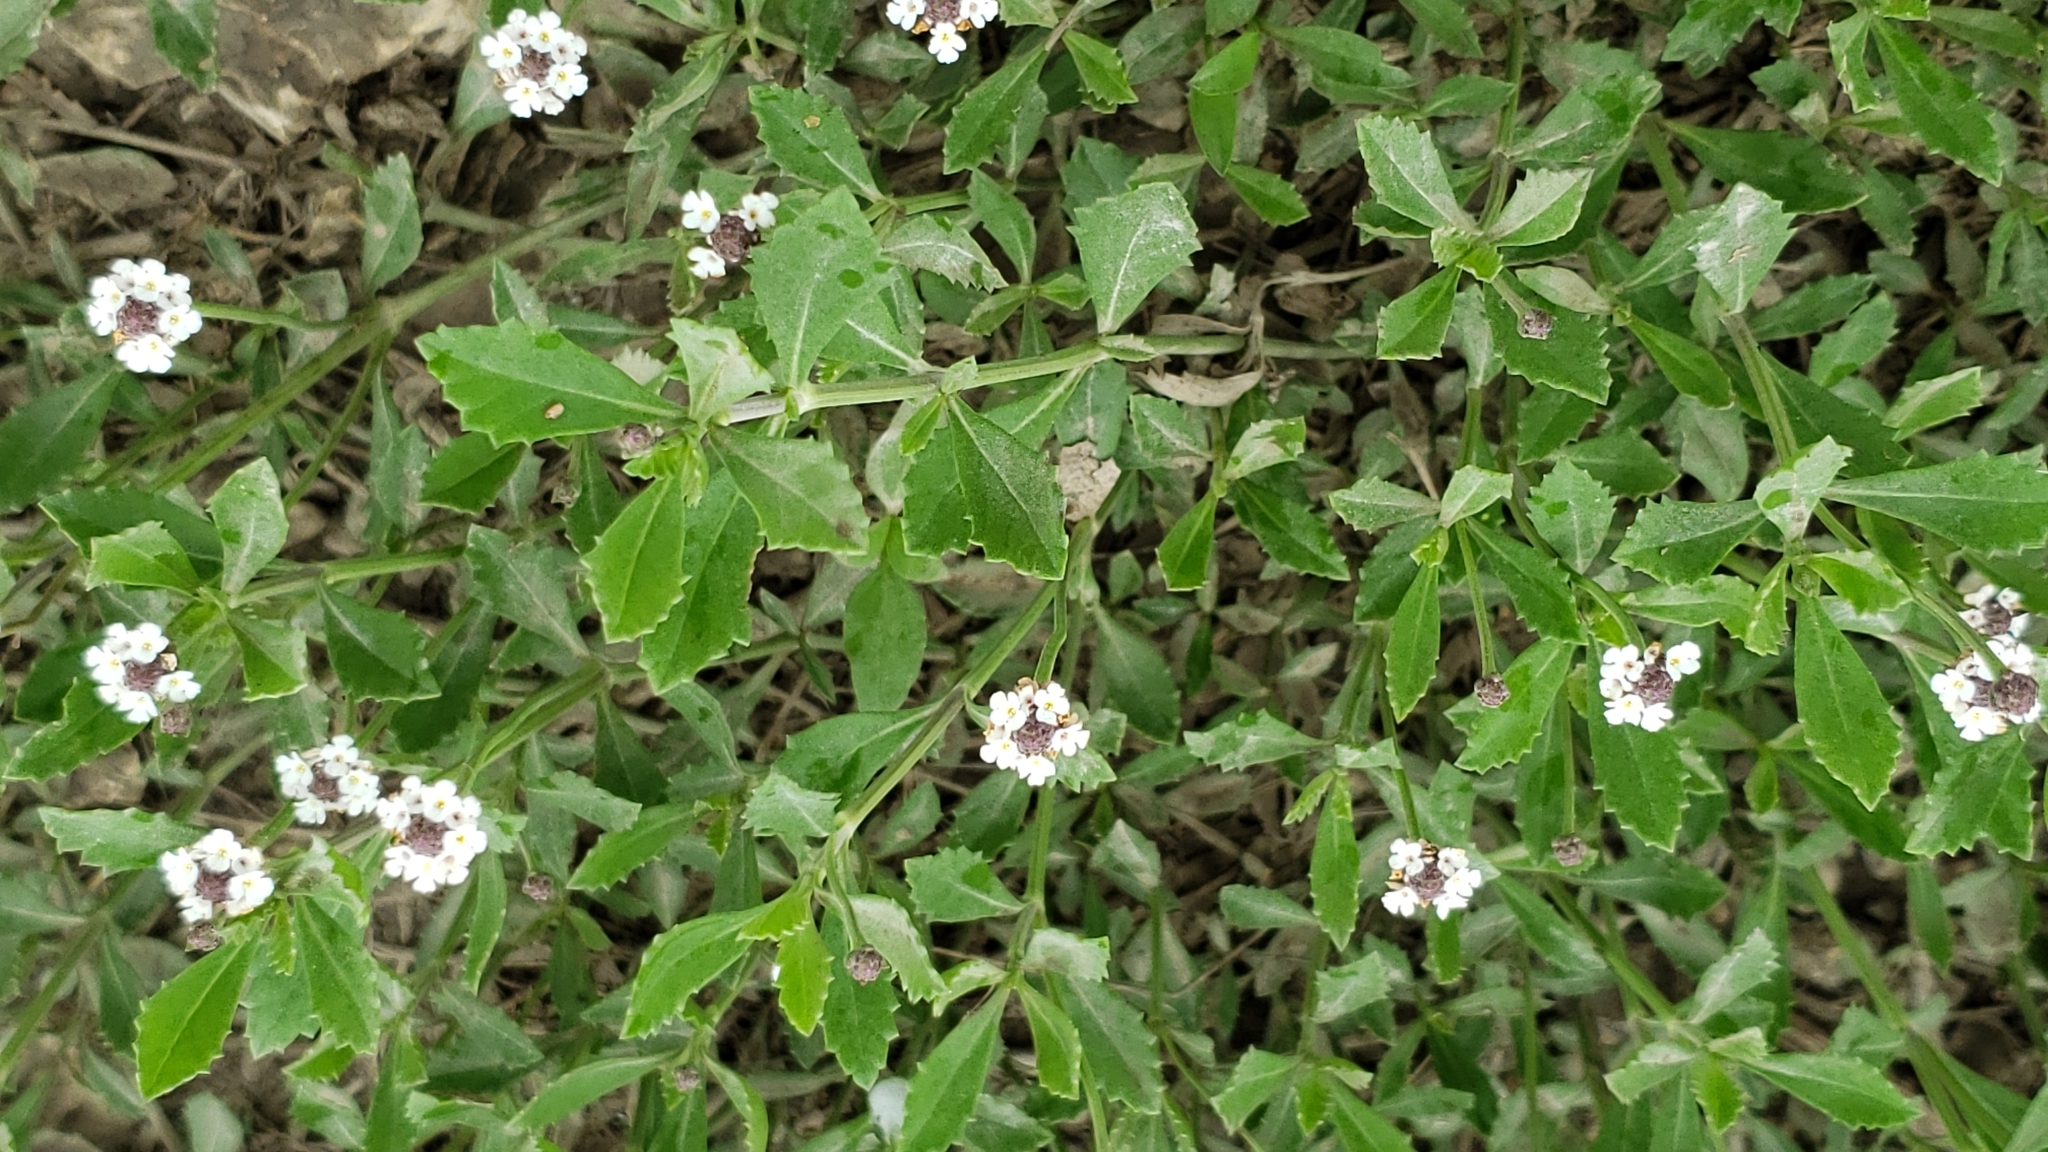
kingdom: Plantae
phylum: Tracheophyta
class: Magnoliopsida
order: Lamiales
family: Verbenaceae
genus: Phyla
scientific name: Phyla nodiflora
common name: Frogfruit
